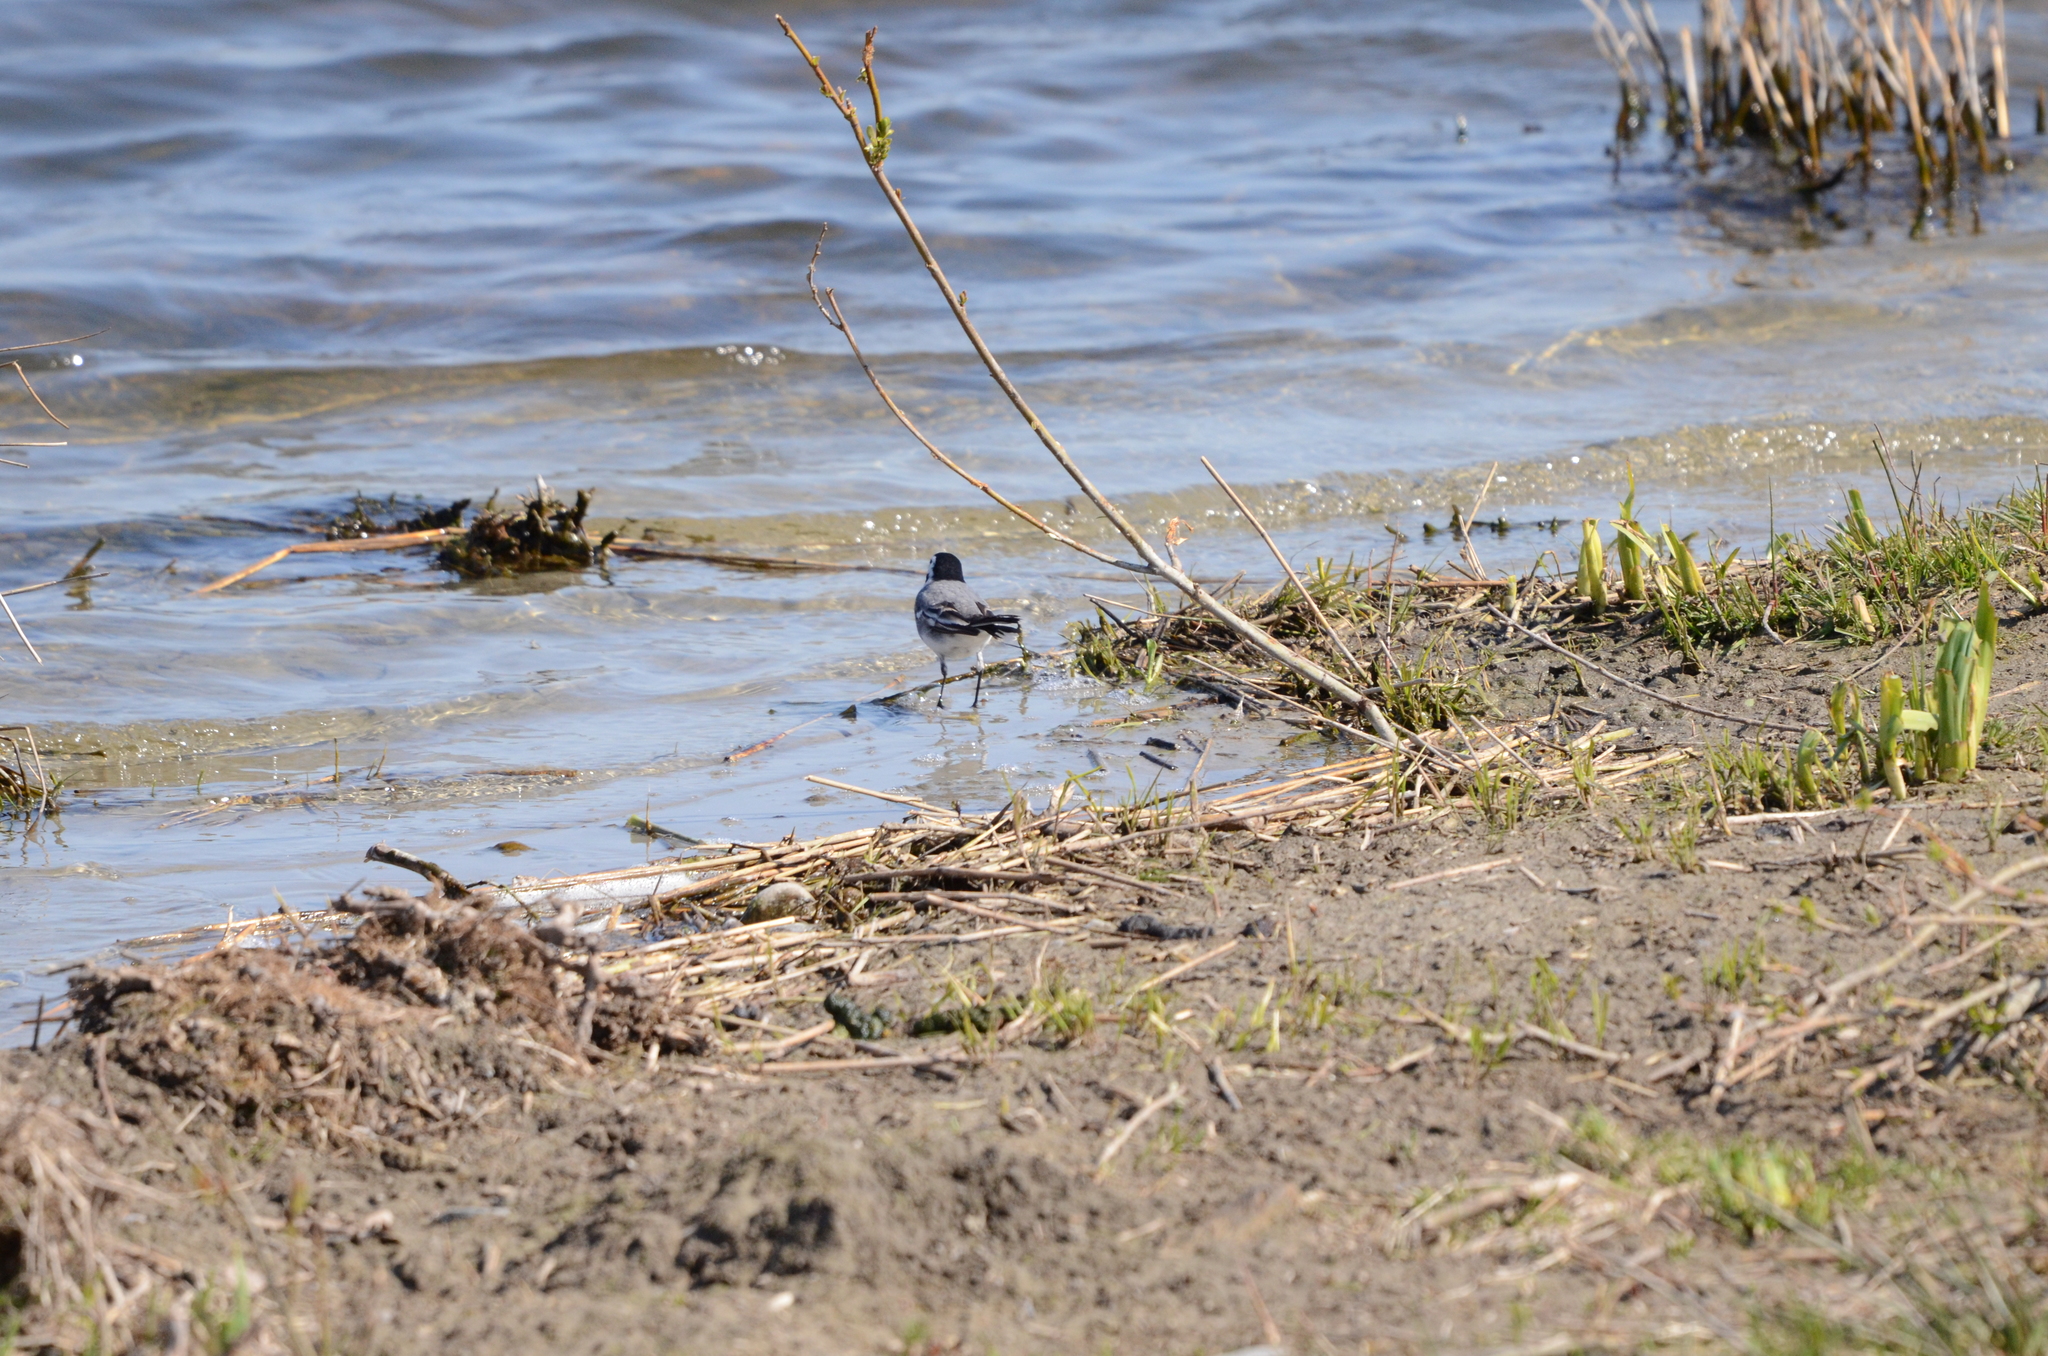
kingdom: Animalia
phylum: Chordata
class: Aves
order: Passeriformes
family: Motacillidae
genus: Motacilla
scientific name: Motacilla alba
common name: White wagtail
